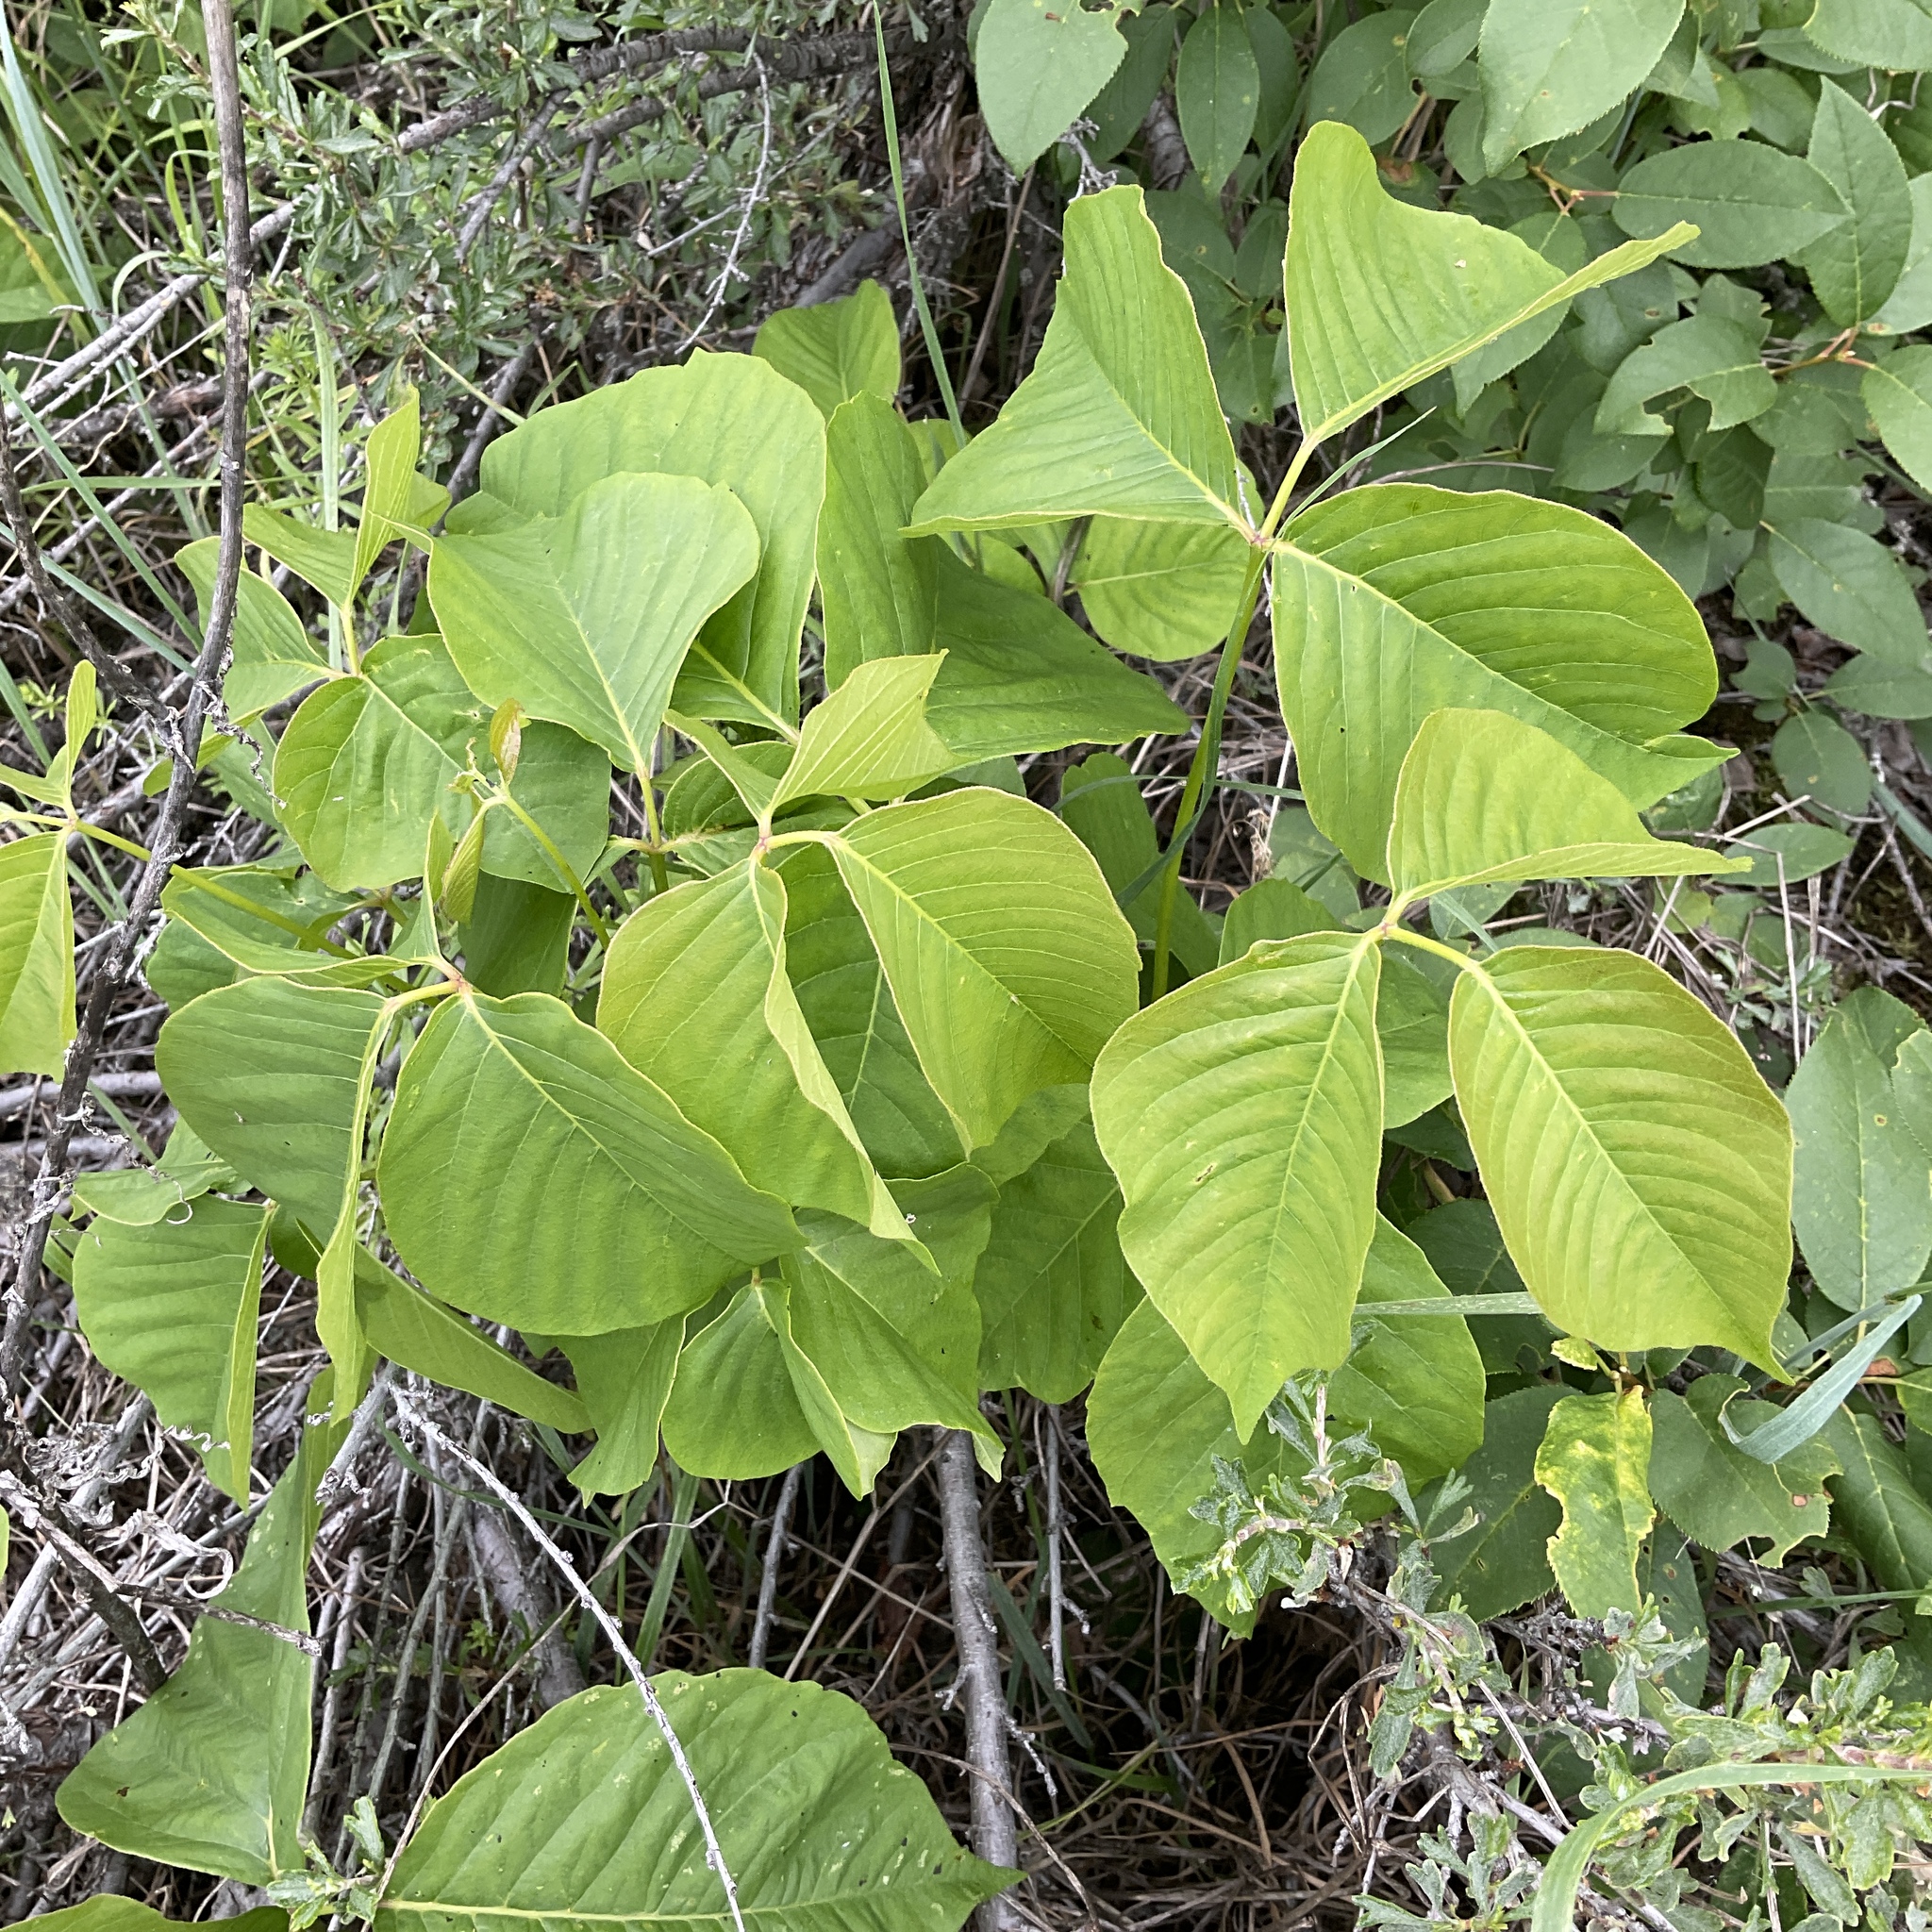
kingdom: Plantae
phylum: Tracheophyta
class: Magnoliopsida
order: Sapindales
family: Anacardiaceae
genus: Toxicodendron
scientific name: Toxicodendron rydbergii
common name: Rydberg's poison-ivy
